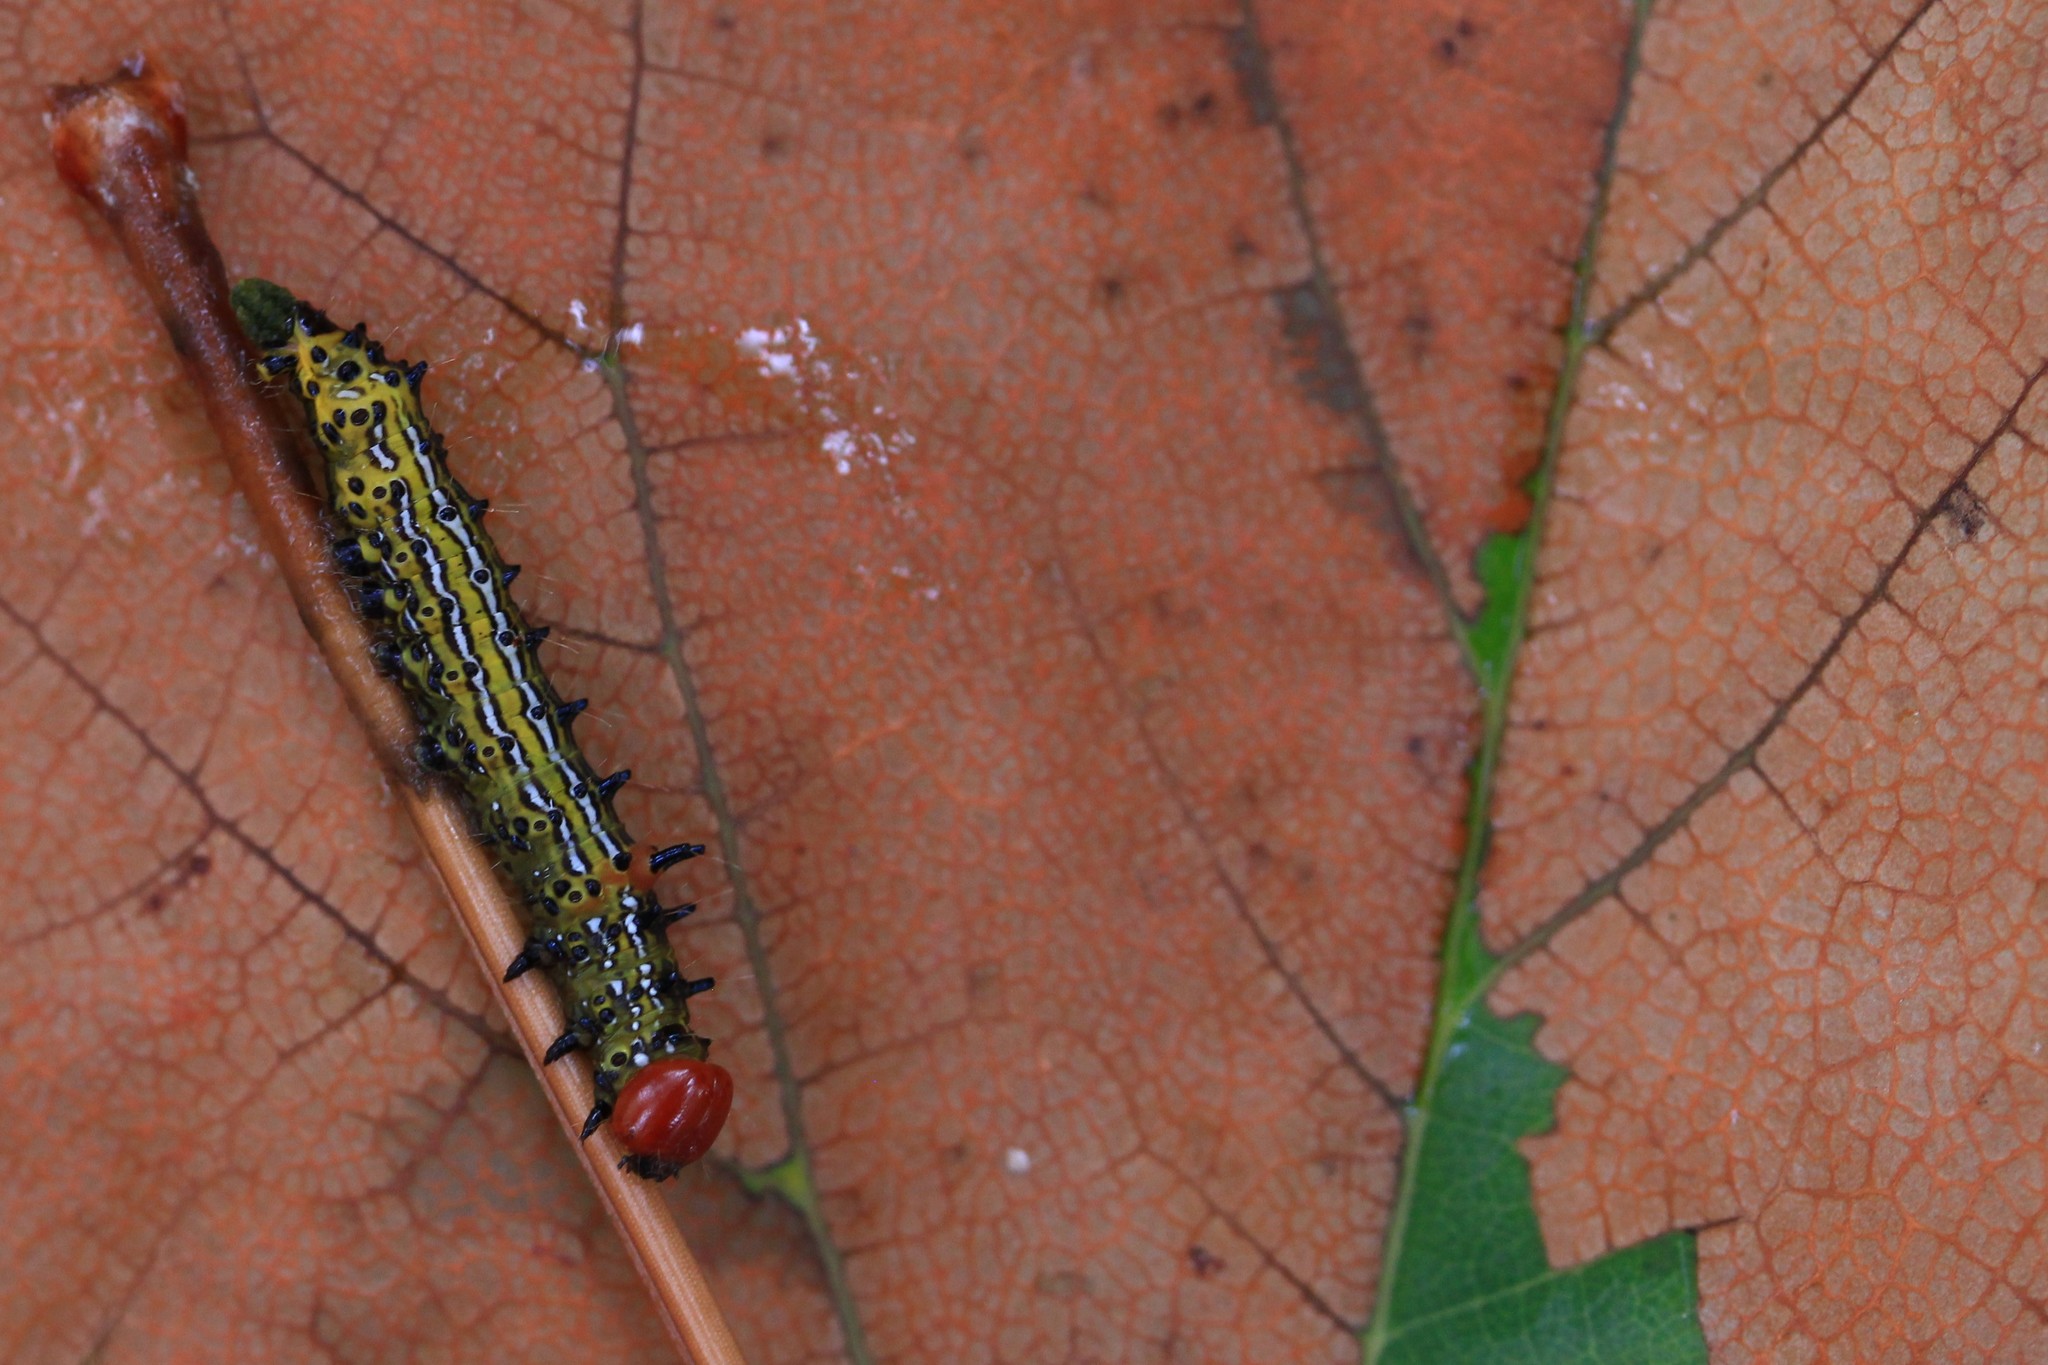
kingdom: Animalia
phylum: Arthropoda
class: Insecta
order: Lepidoptera
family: Notodontidae
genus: Schizura
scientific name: Schizura
